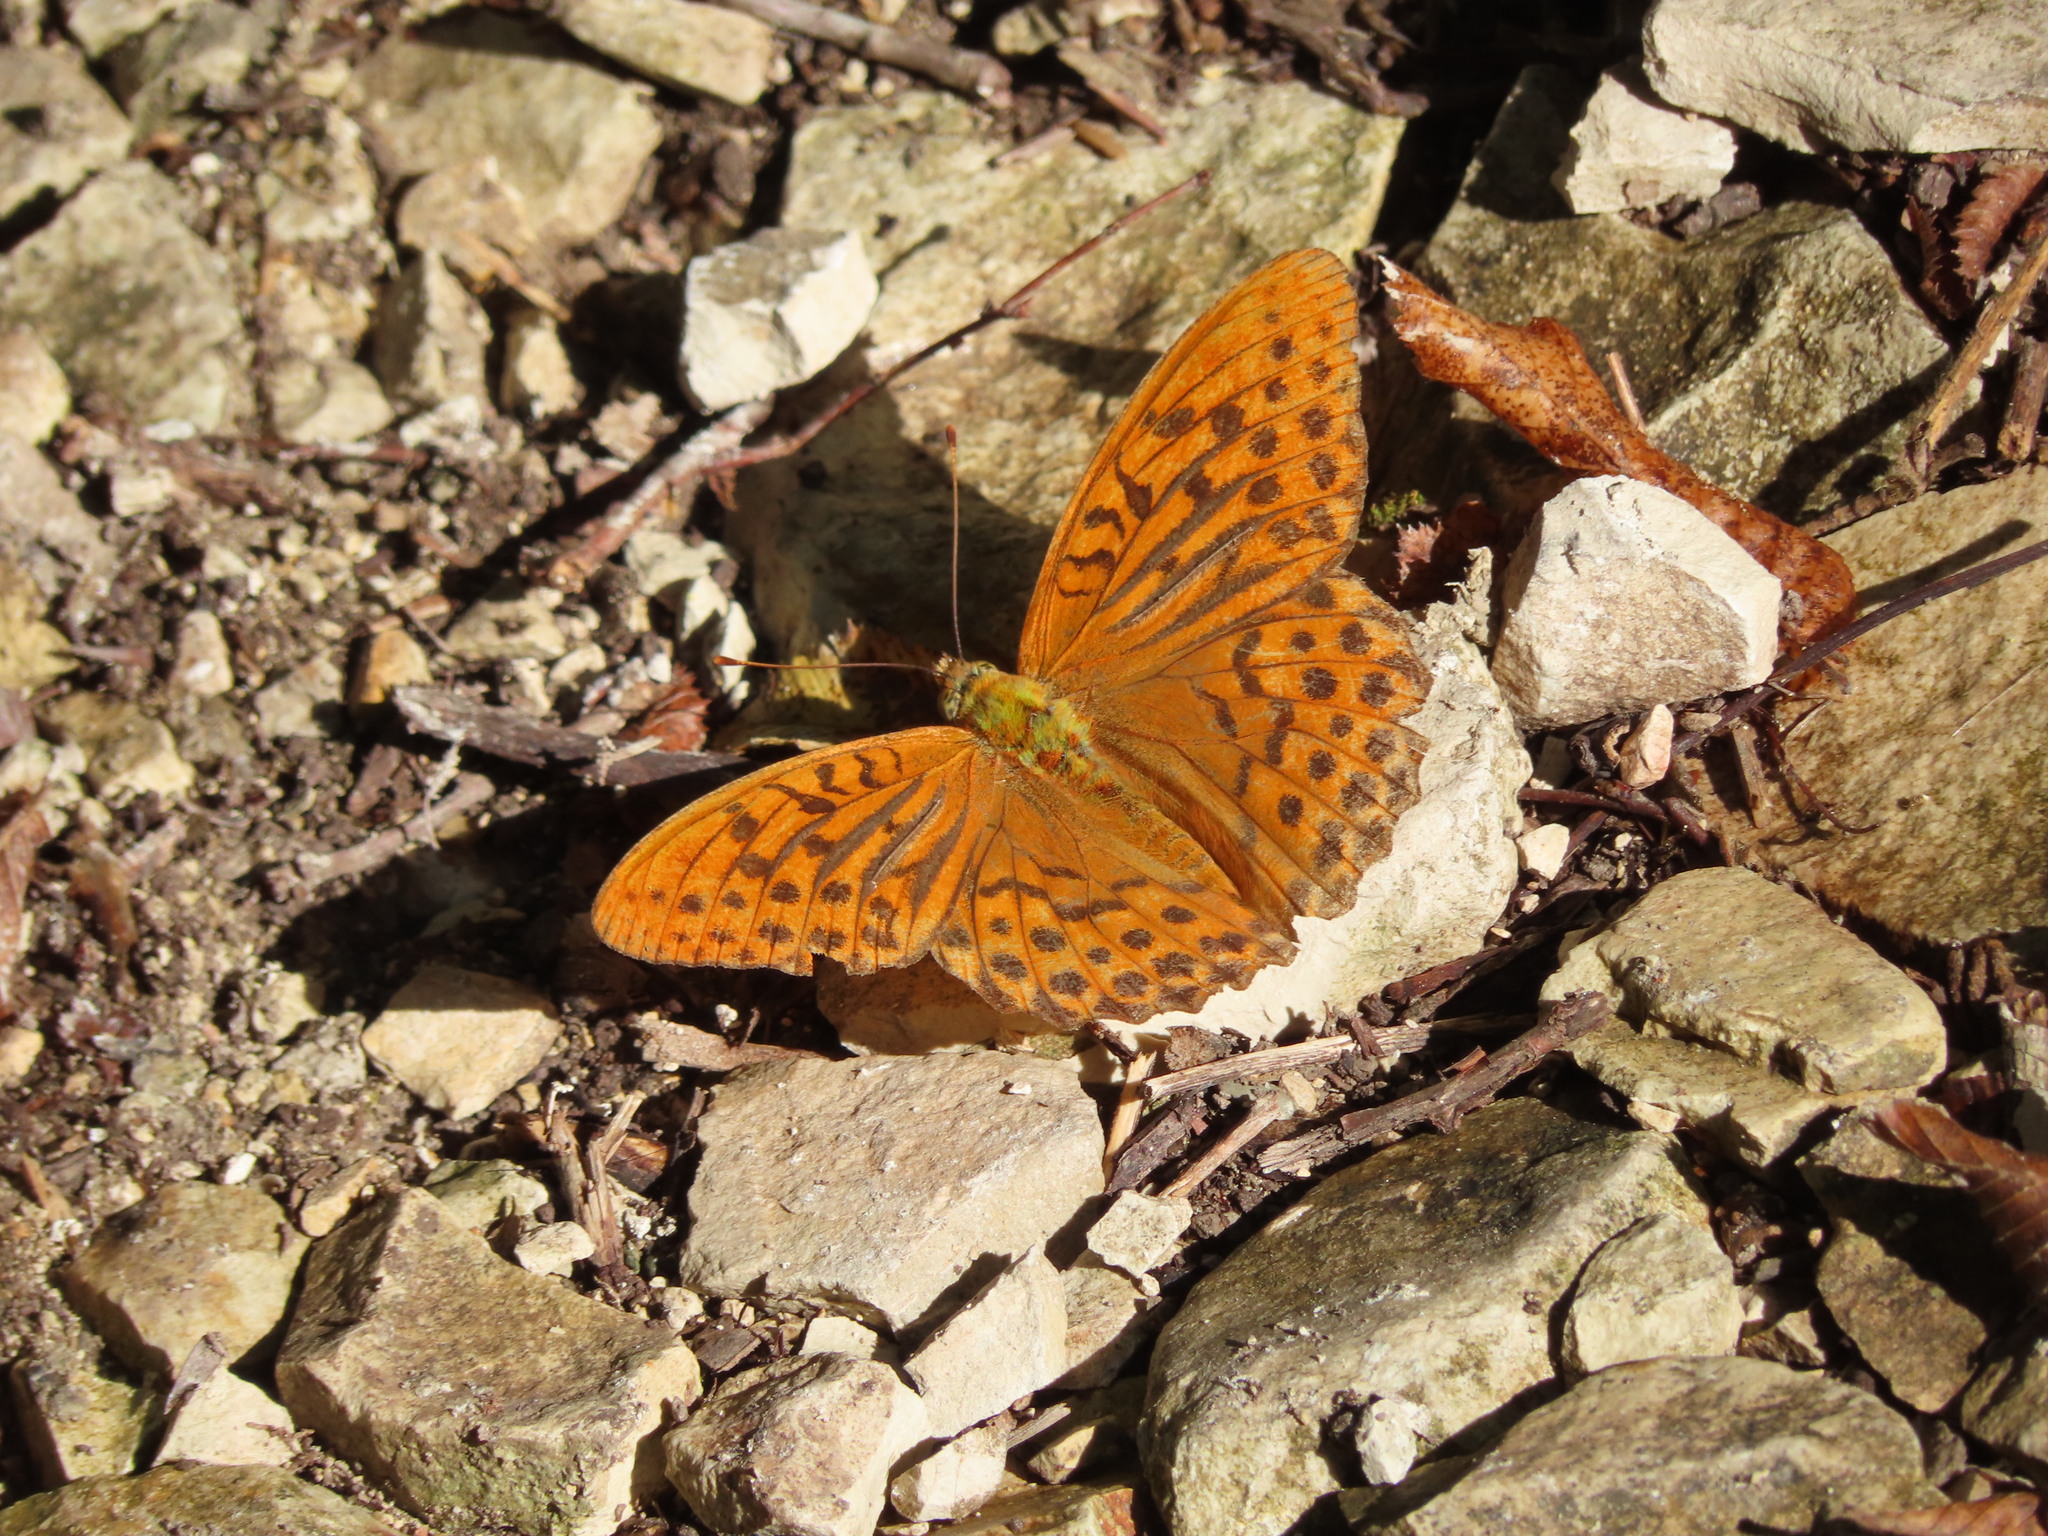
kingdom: Animalia
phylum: Arthropoda
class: Insecta
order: Lepidoptera
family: Nymphalidae
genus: Argynnis
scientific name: Argynnis paphia
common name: Silver-washed fritillary
